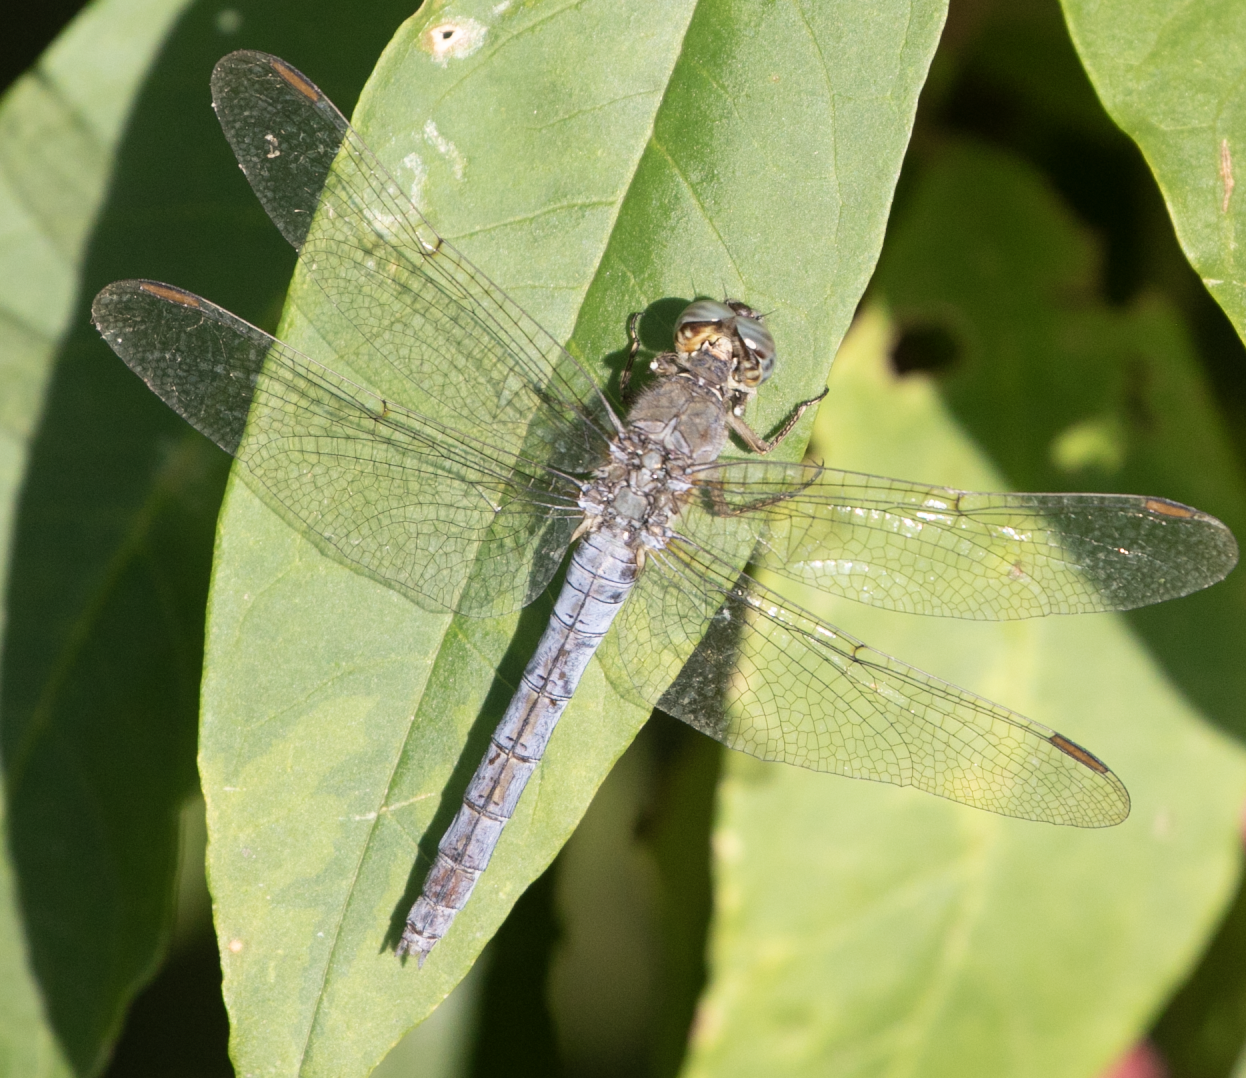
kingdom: Animalia
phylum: Arthropoda
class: Insecta
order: Odonata
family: Libellulidae
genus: Orthetrum
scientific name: Orthetrum coerulescens
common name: Keeled skimmer
